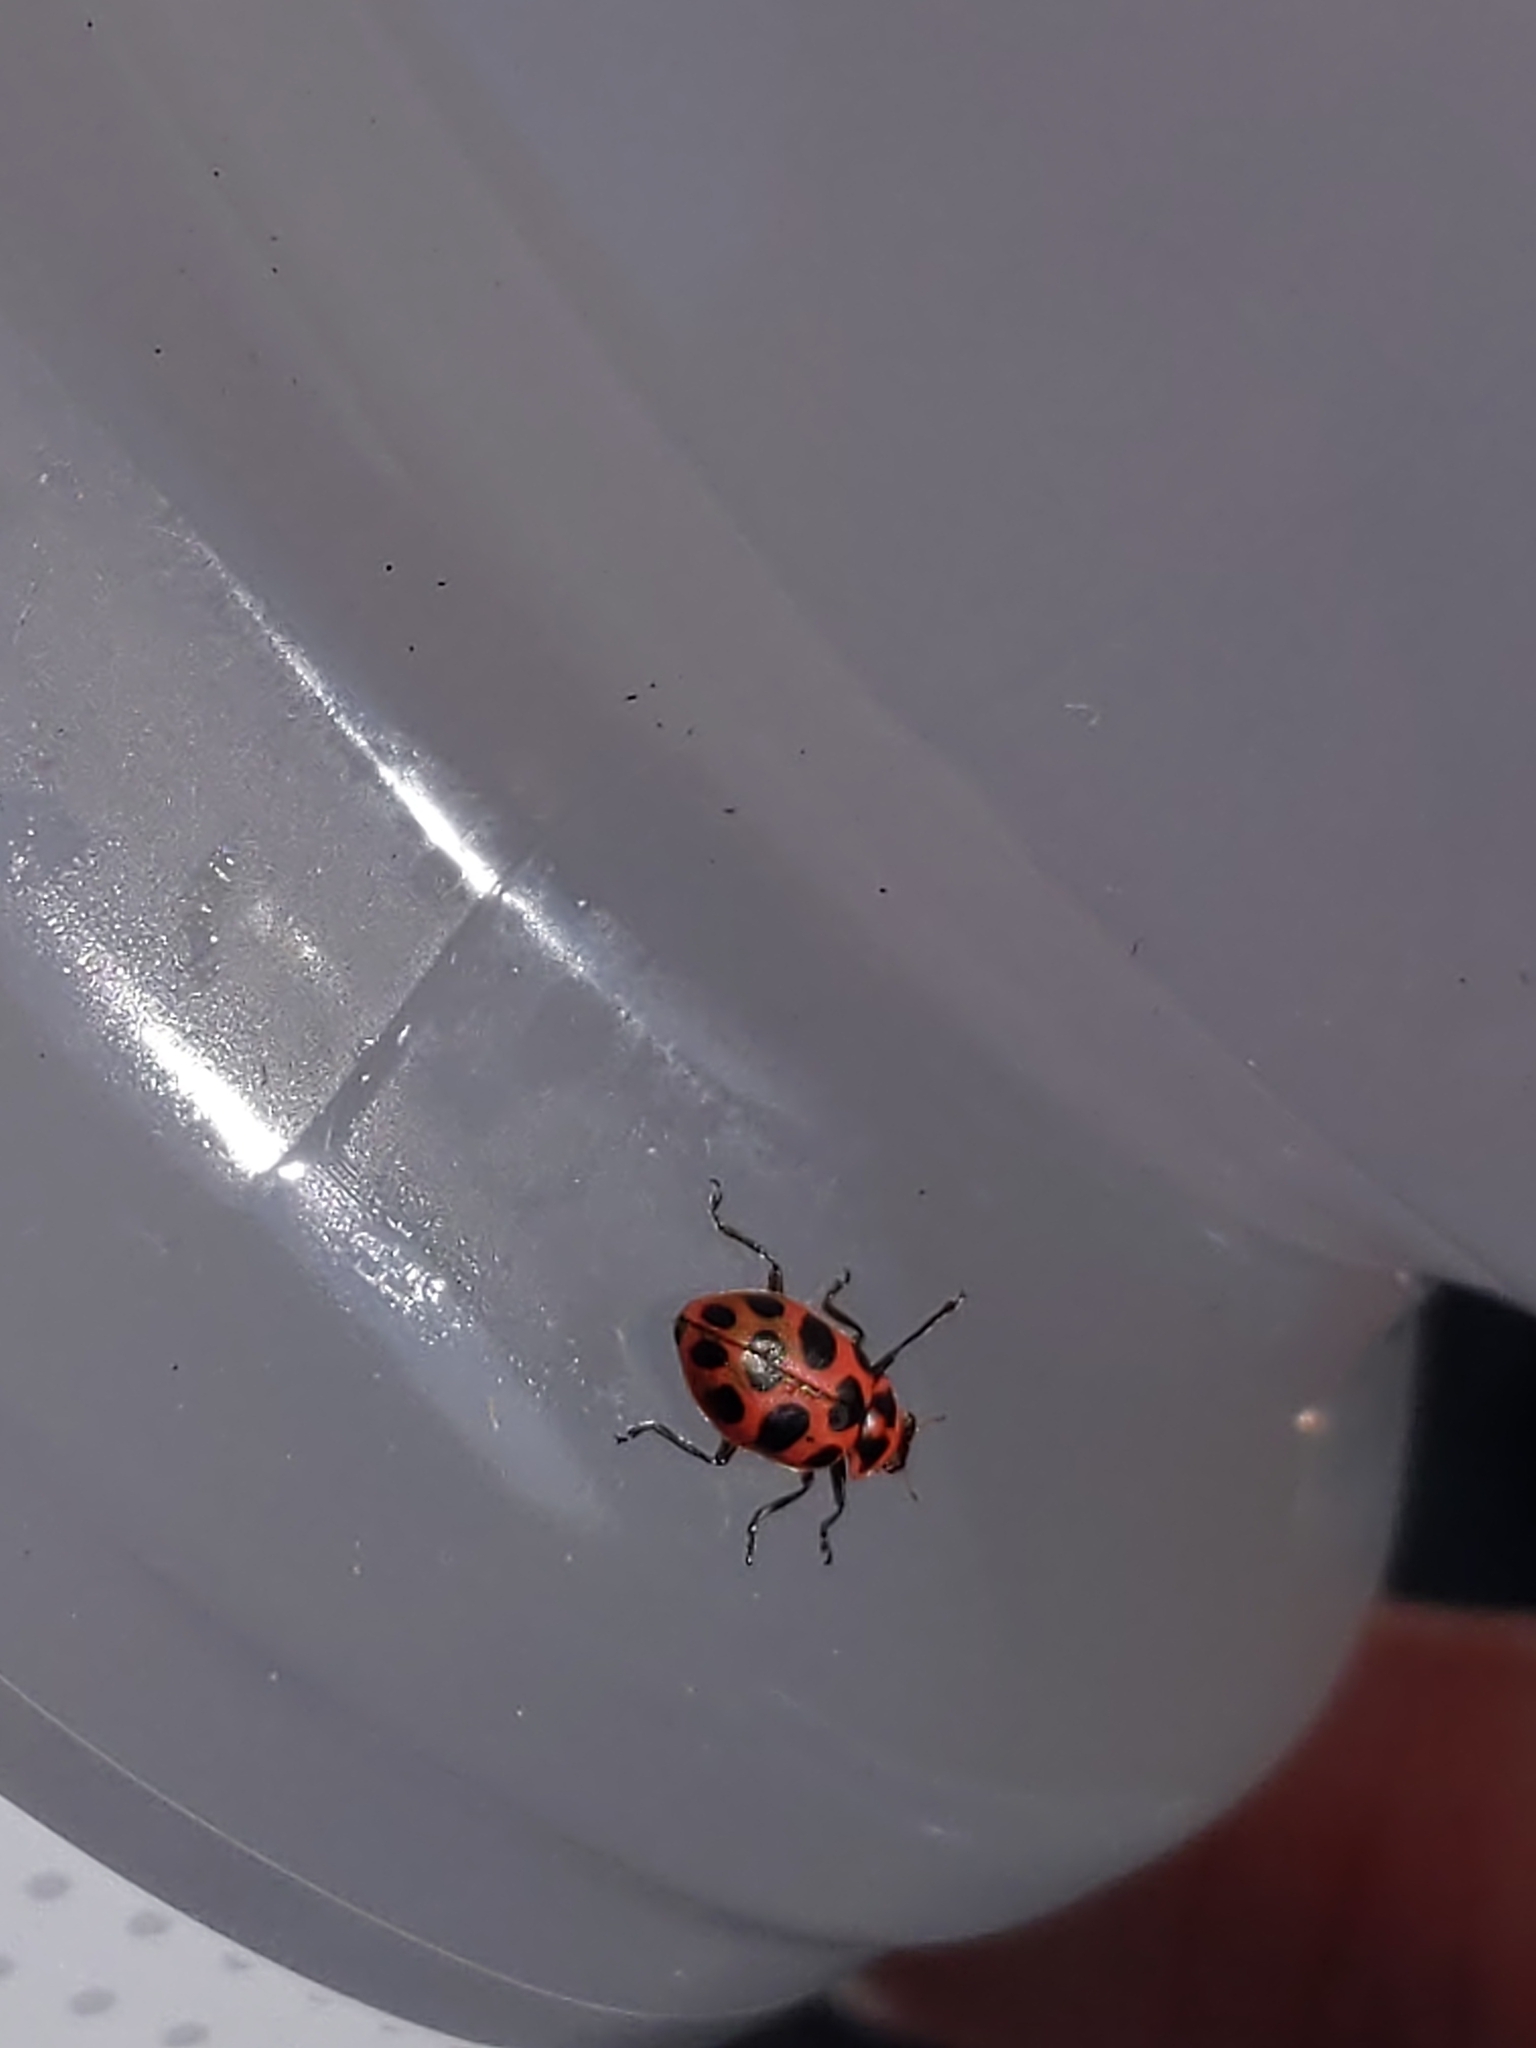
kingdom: Animalia
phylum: Arthropoda
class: Insecta
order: Coleoptera
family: Coccinellidae
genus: Coleomegilla
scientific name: Coleomegilla maculata
